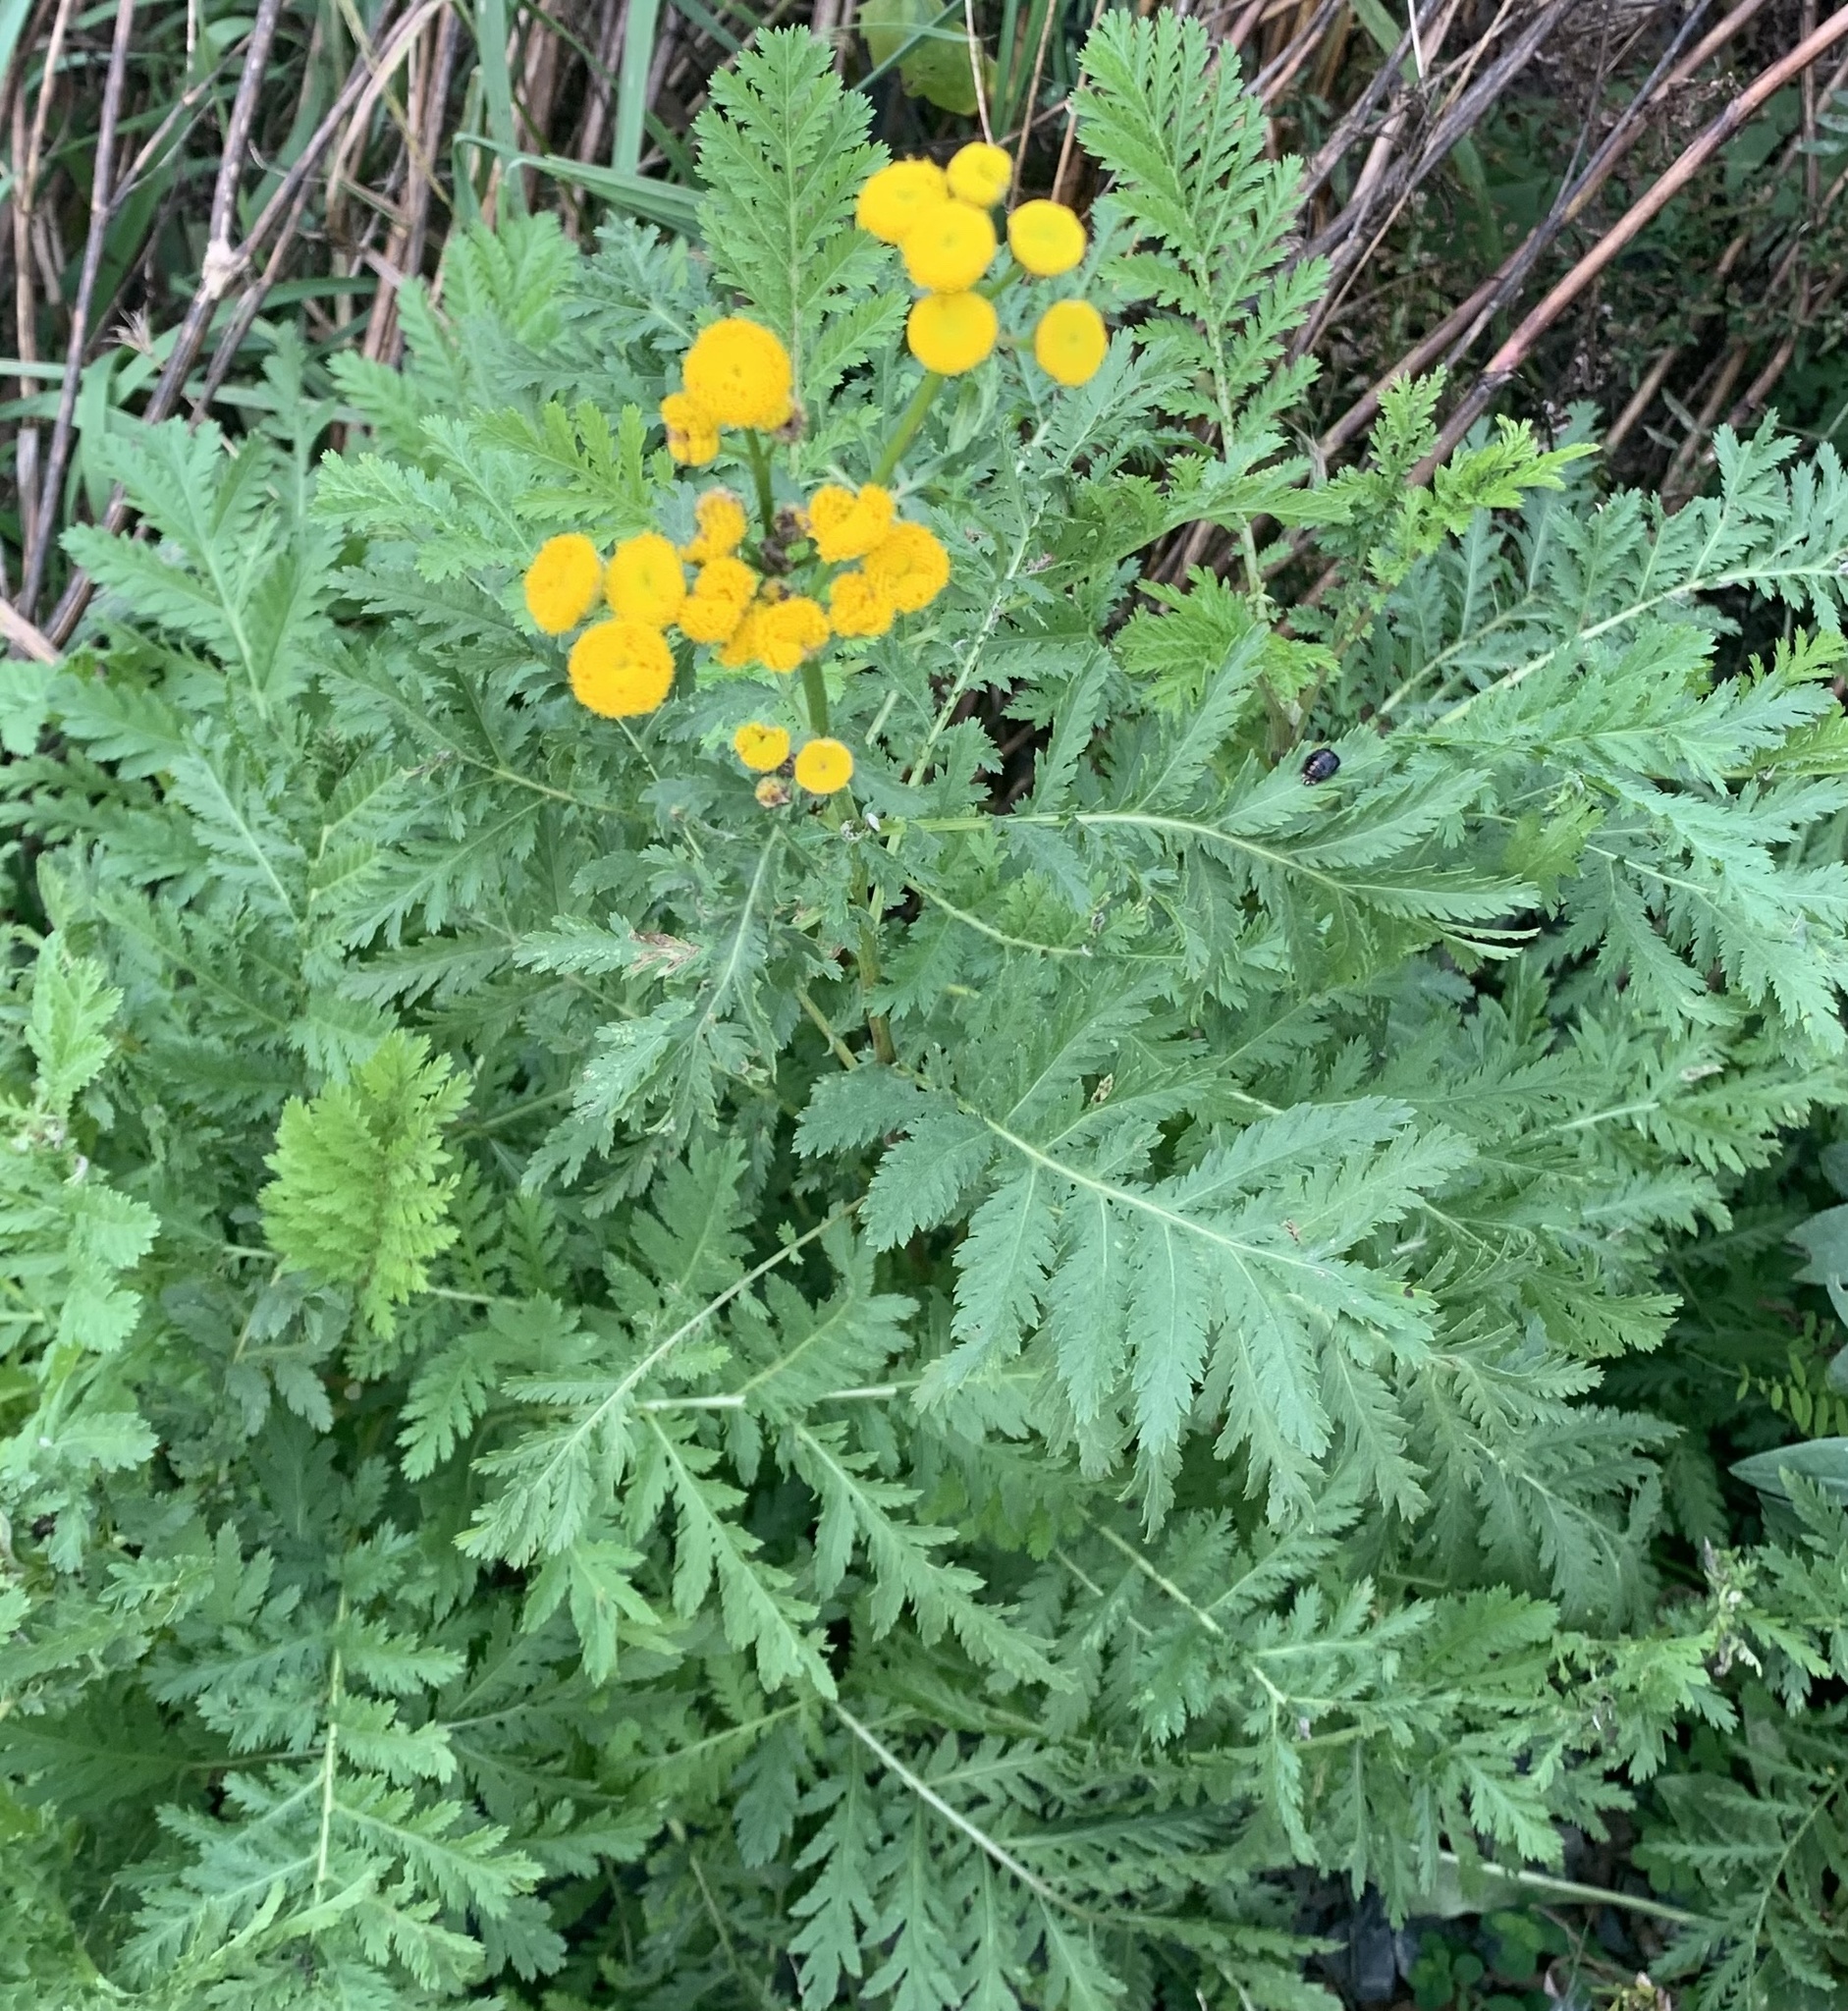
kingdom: Plantae
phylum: Tracheophyta
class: Magnoliopsida
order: Asterales
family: Asteraceae
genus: Tanacetum
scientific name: Tanacetum vulgare
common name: Common tansy
